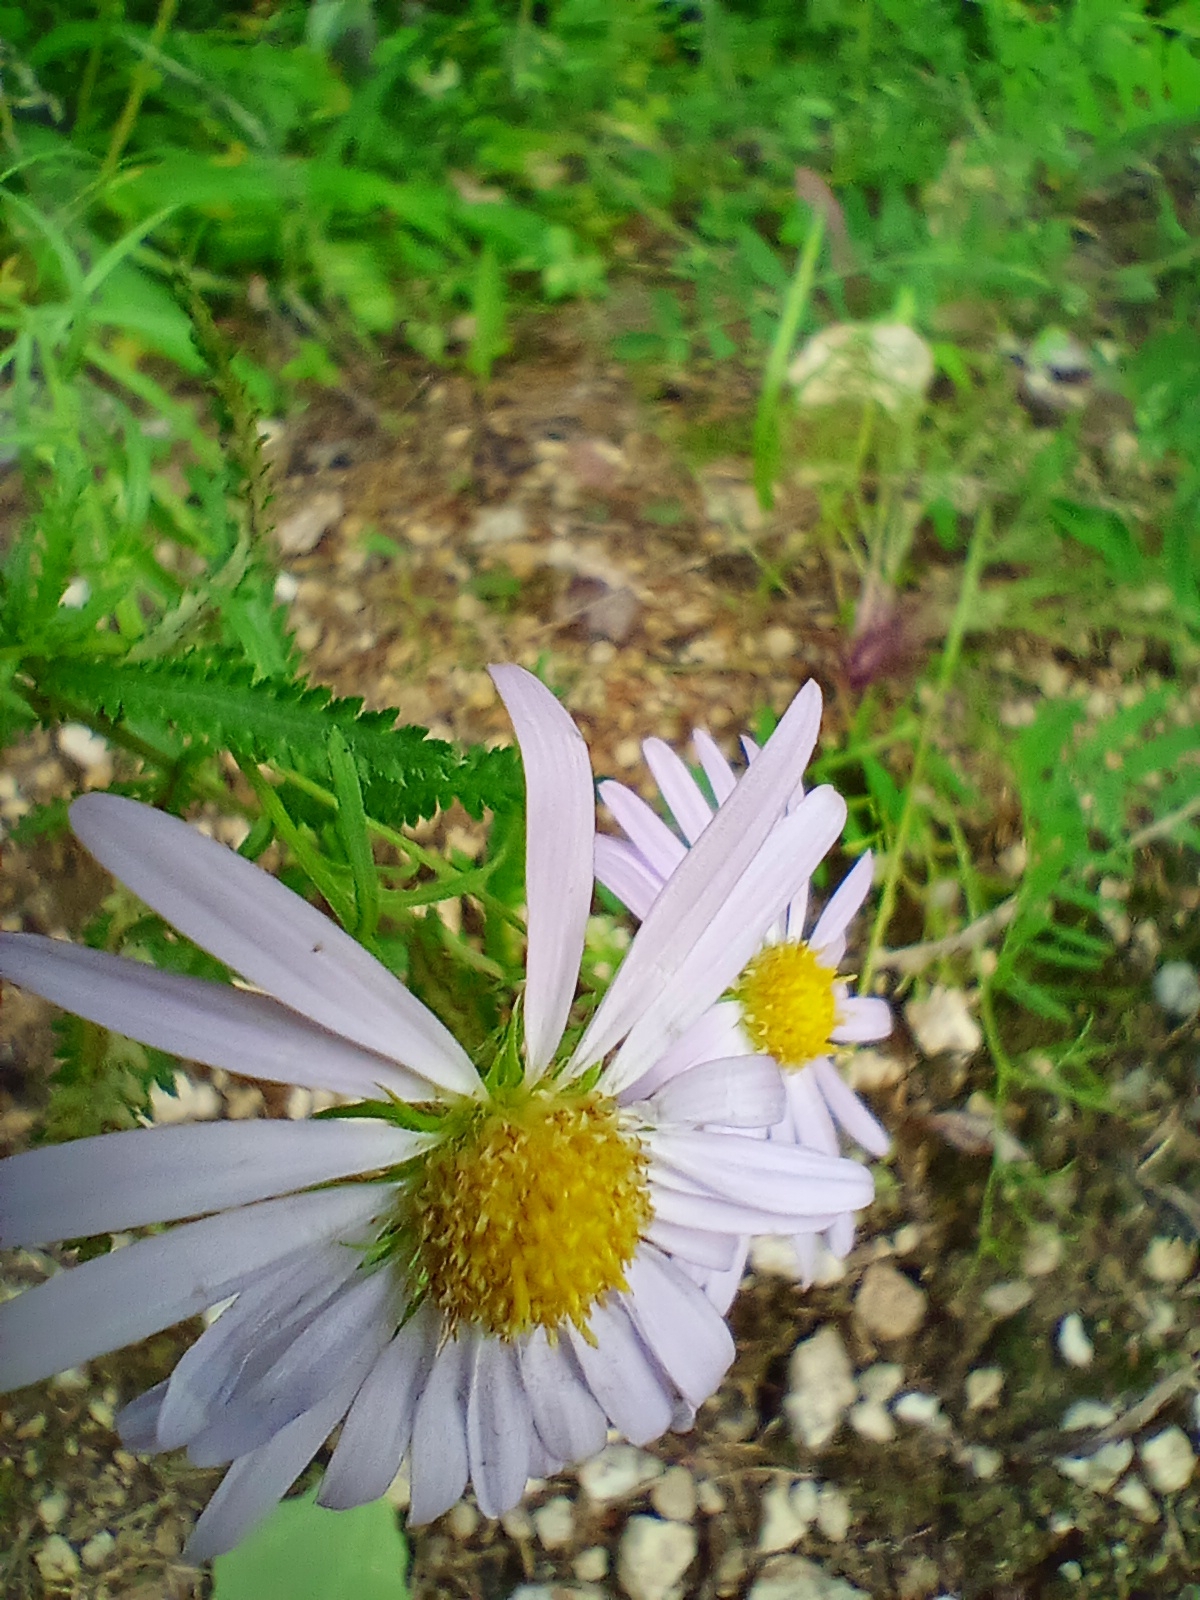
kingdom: Plantae
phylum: Tracheophyta
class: Magnoliopsida
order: Asterales
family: Asteraceae
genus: Aster
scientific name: Aster biennis
